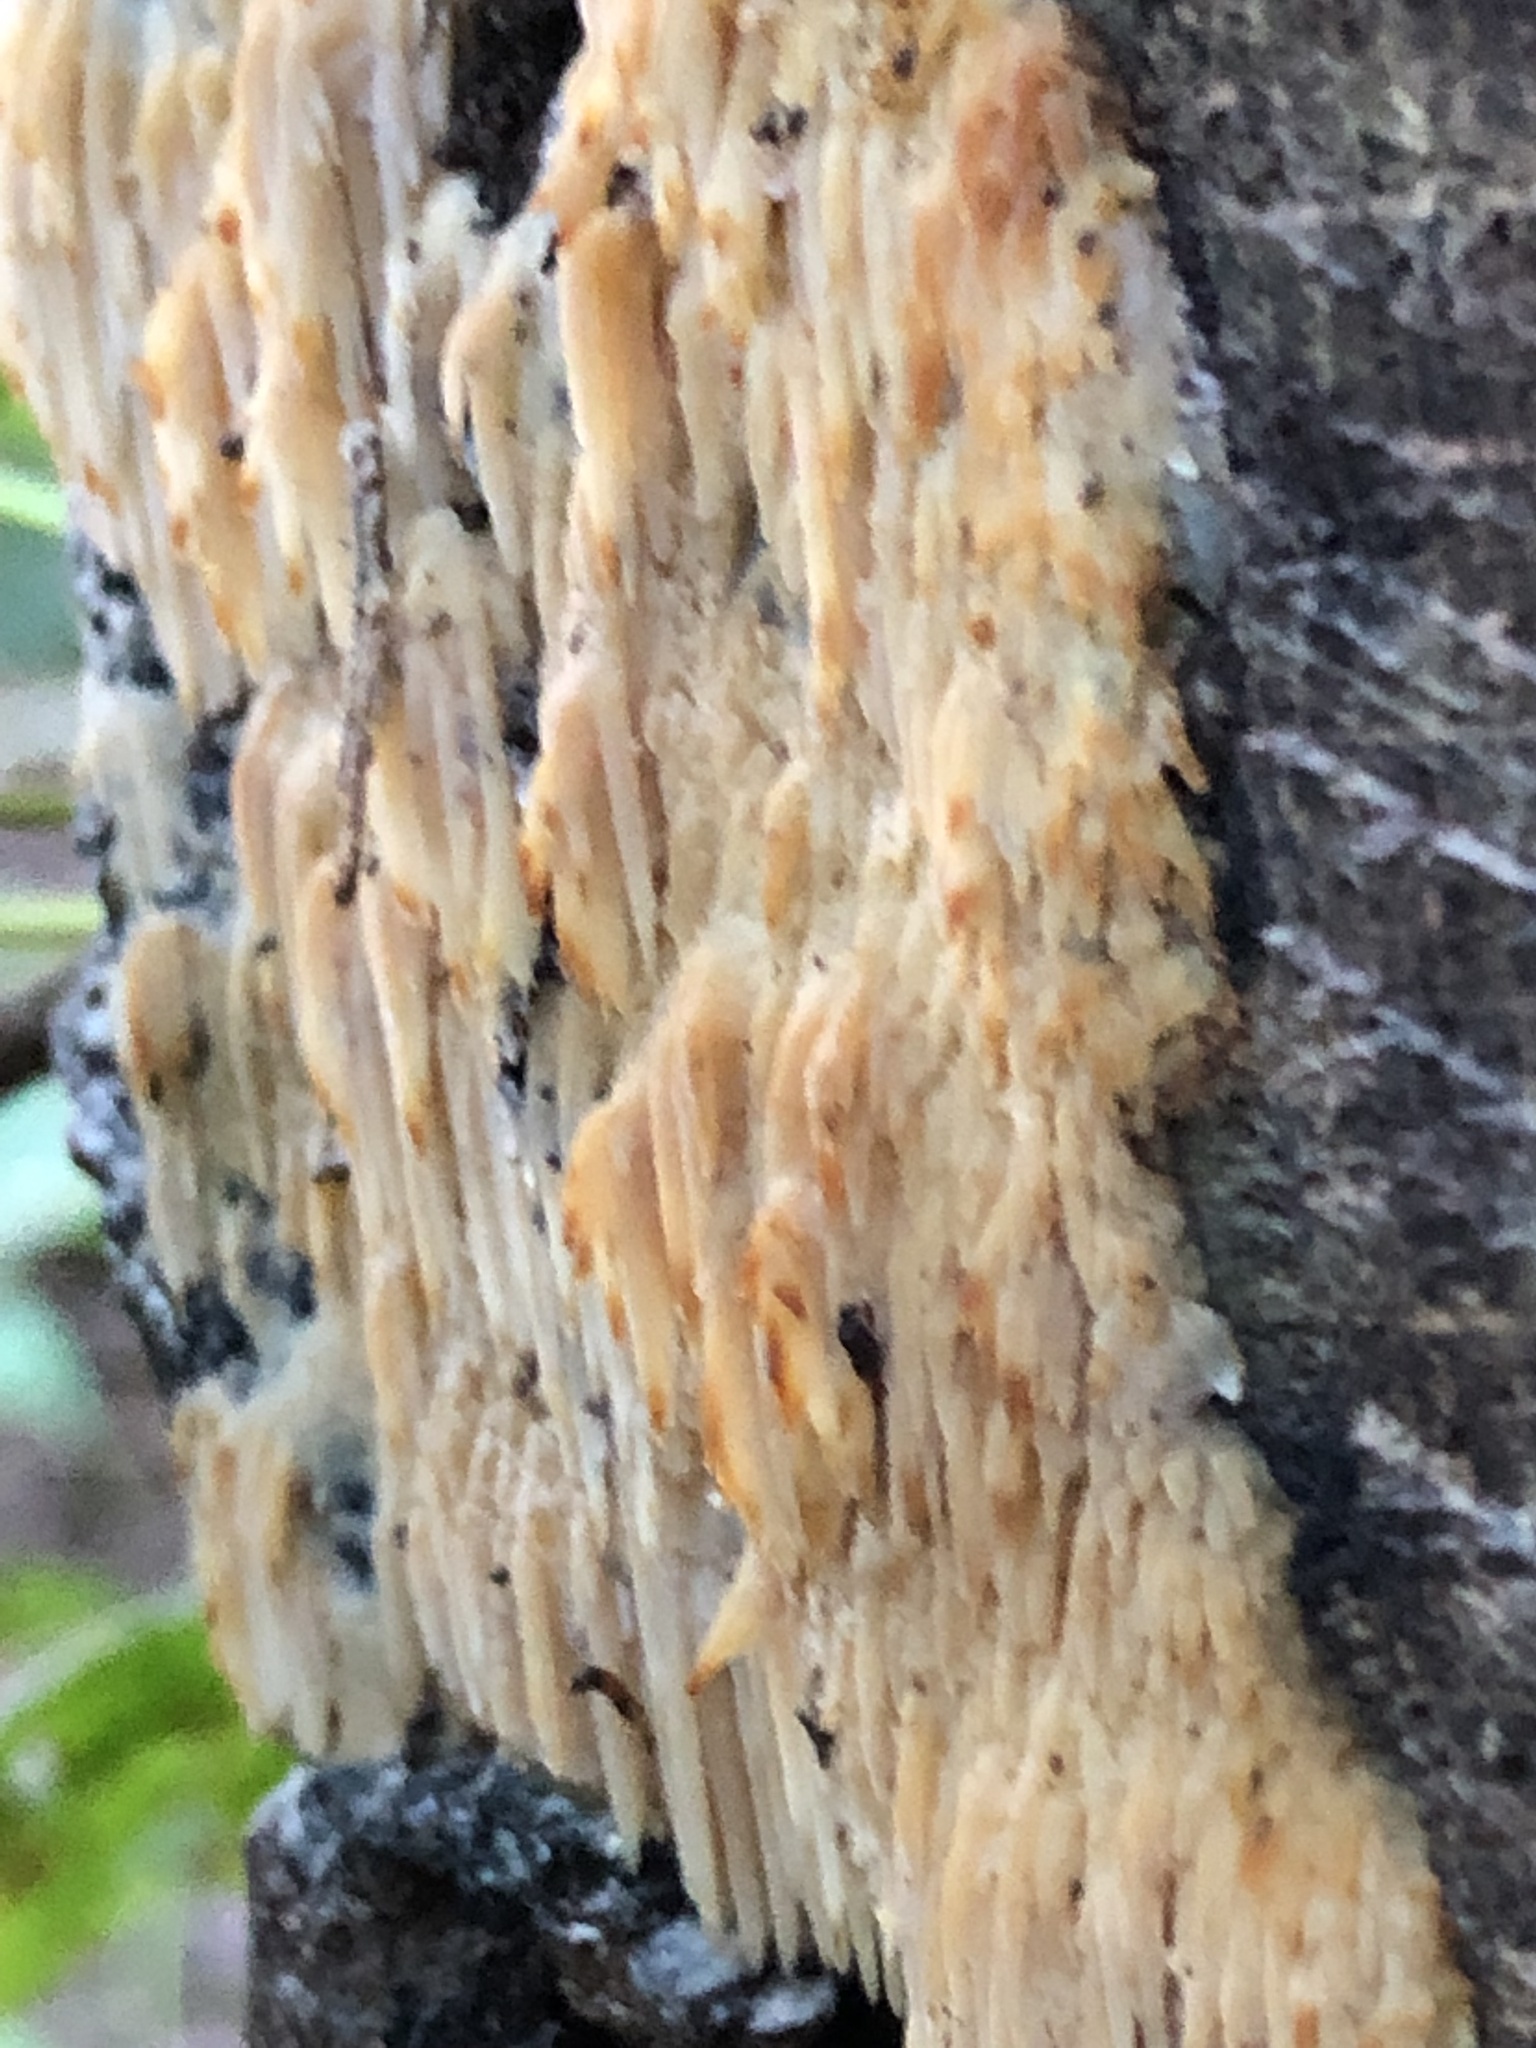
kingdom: Fungi
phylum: Basidiomycota
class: Agaricomycetes
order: Agaricales
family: Radulomycetaceae
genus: Radulomyces
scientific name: Radulomyces copelandii
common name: Asian beauty
